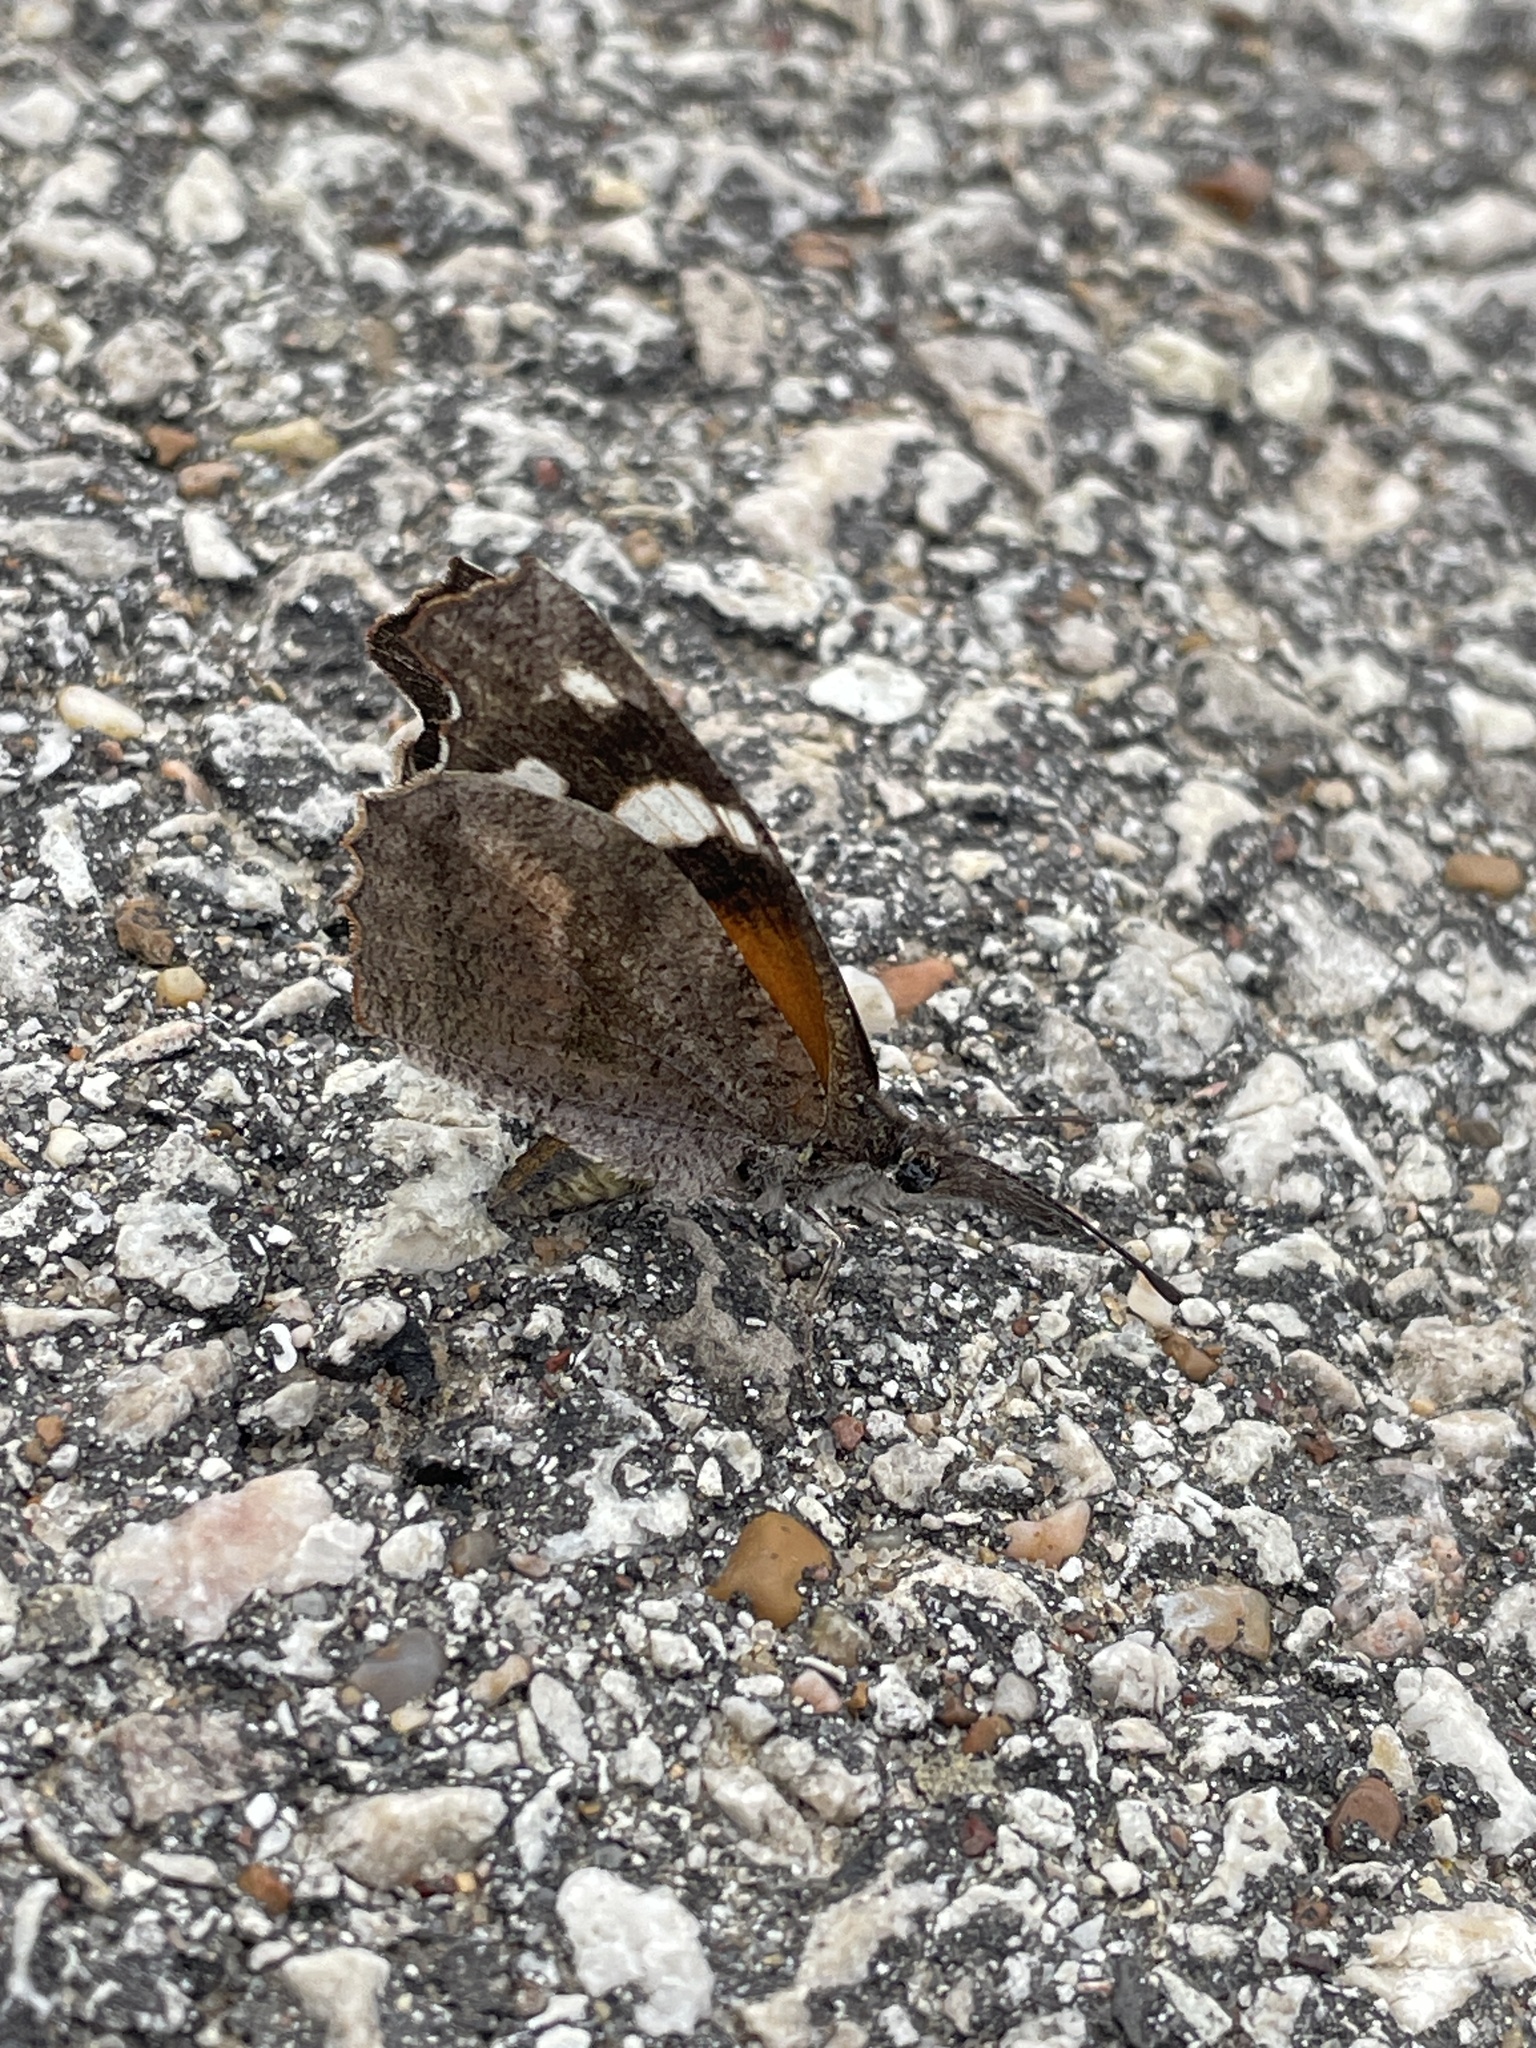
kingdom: Animalia
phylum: Arthropoda
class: Insecta
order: Lepidoptera
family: Nymphalidae
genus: Libytheana
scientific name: Libytheana carinenta
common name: American snout
